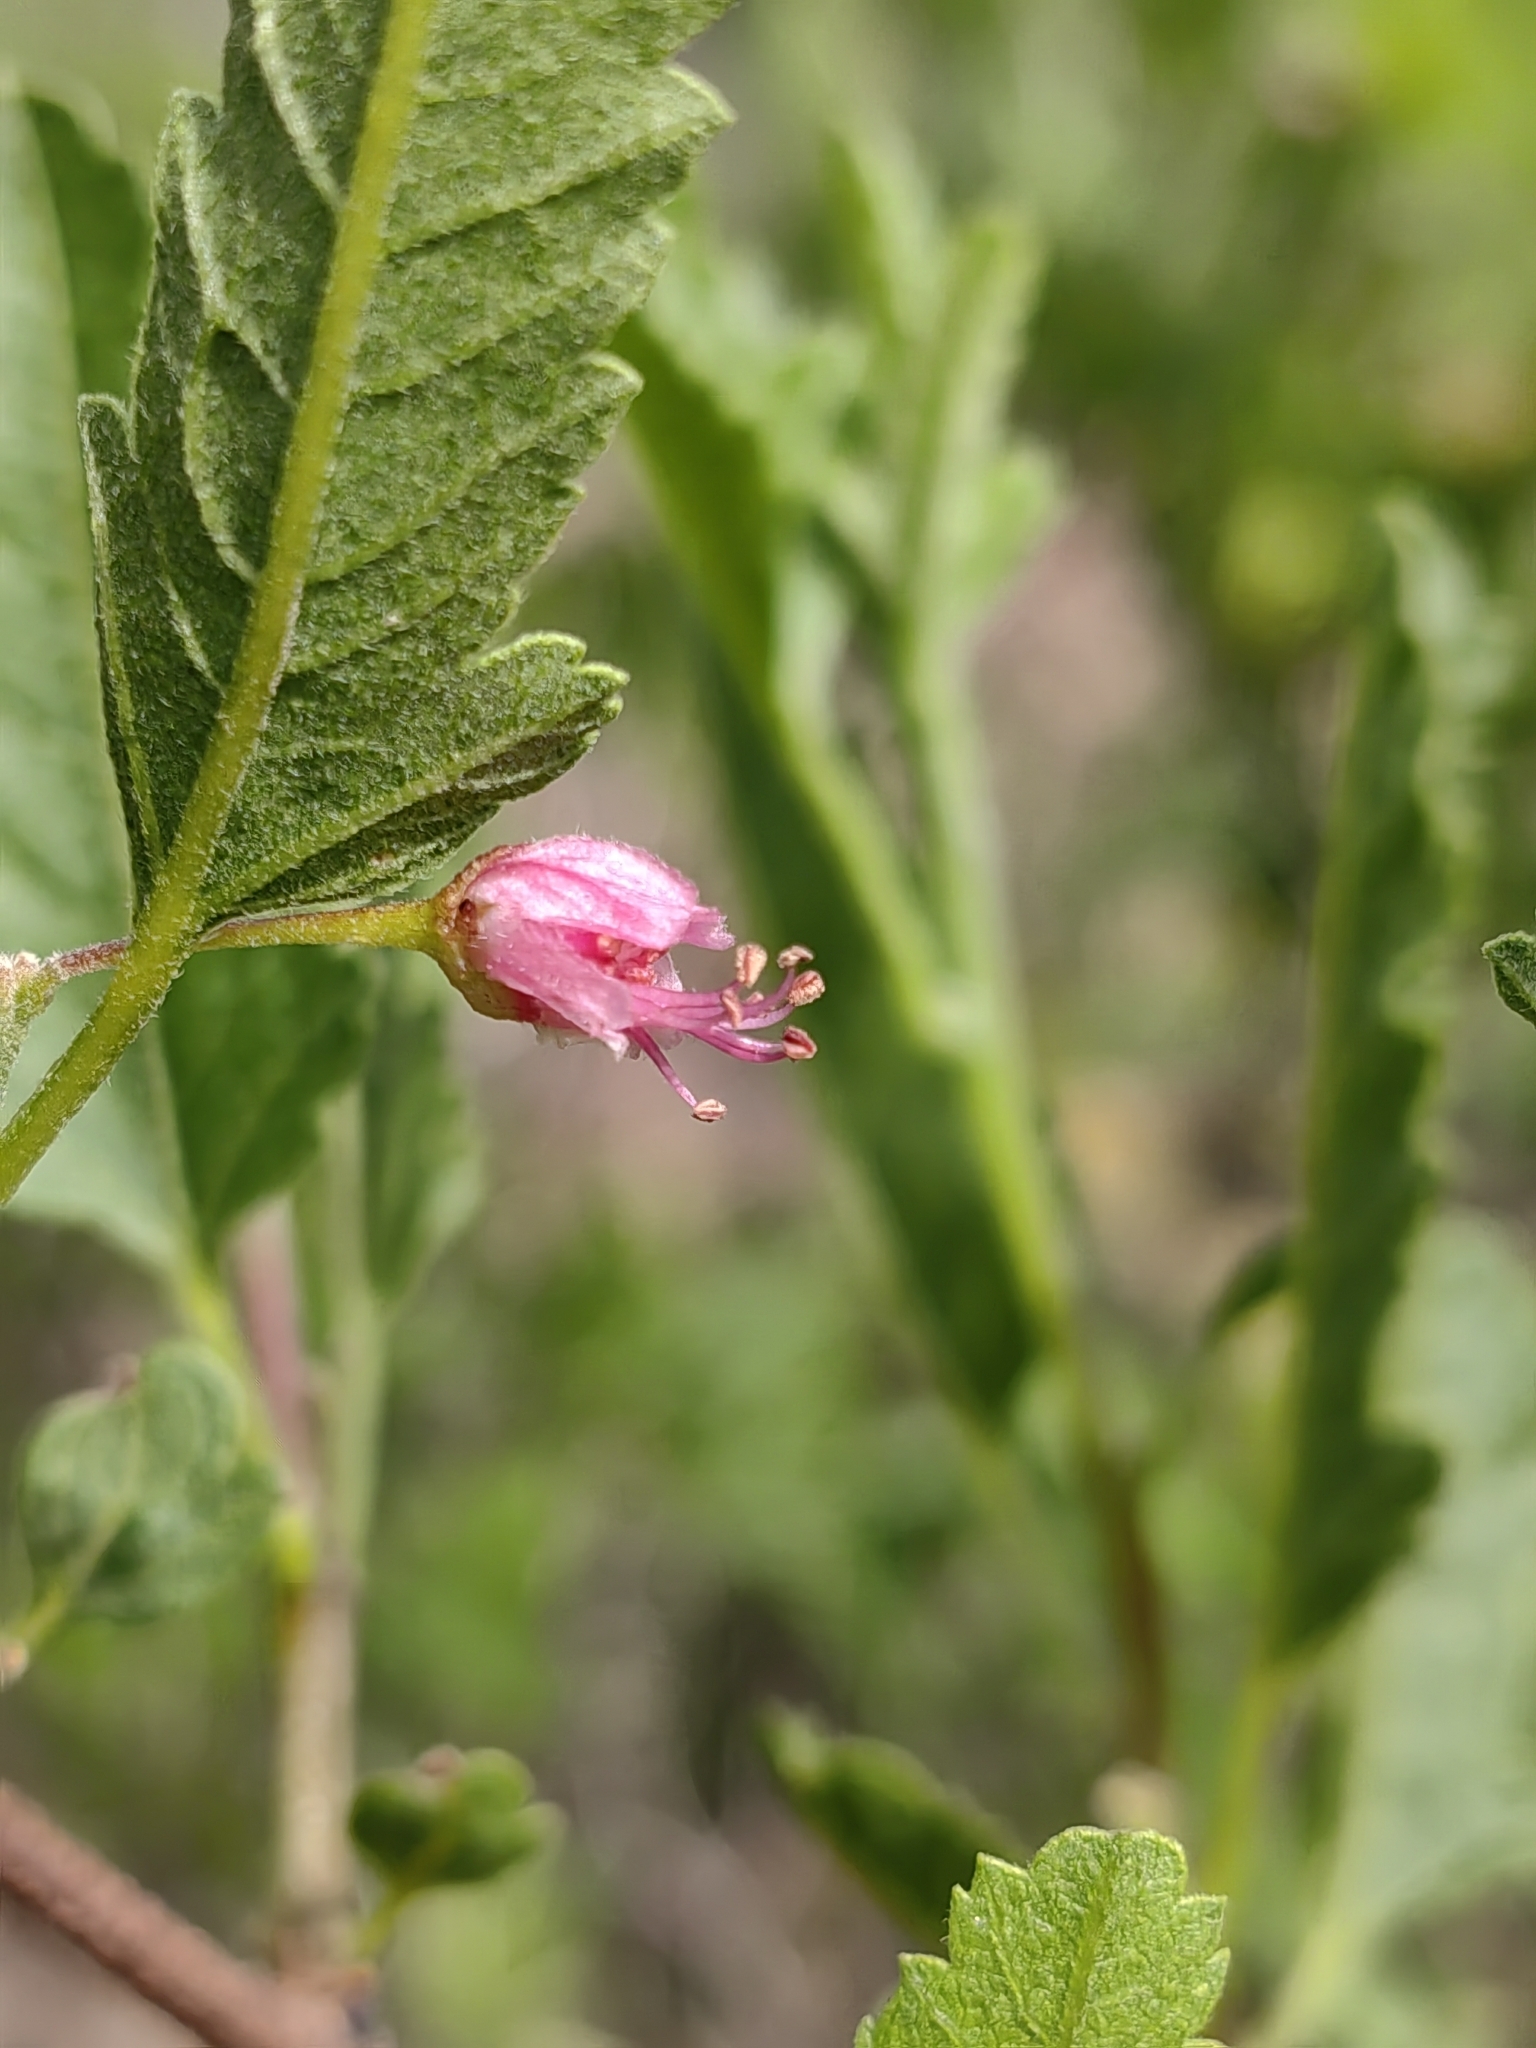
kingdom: Plantae
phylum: Tracheophyta
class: Magnoliopsida
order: Sapindales
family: Sapindaceae
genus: Bridgesia
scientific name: Bridgesia incisifolia
